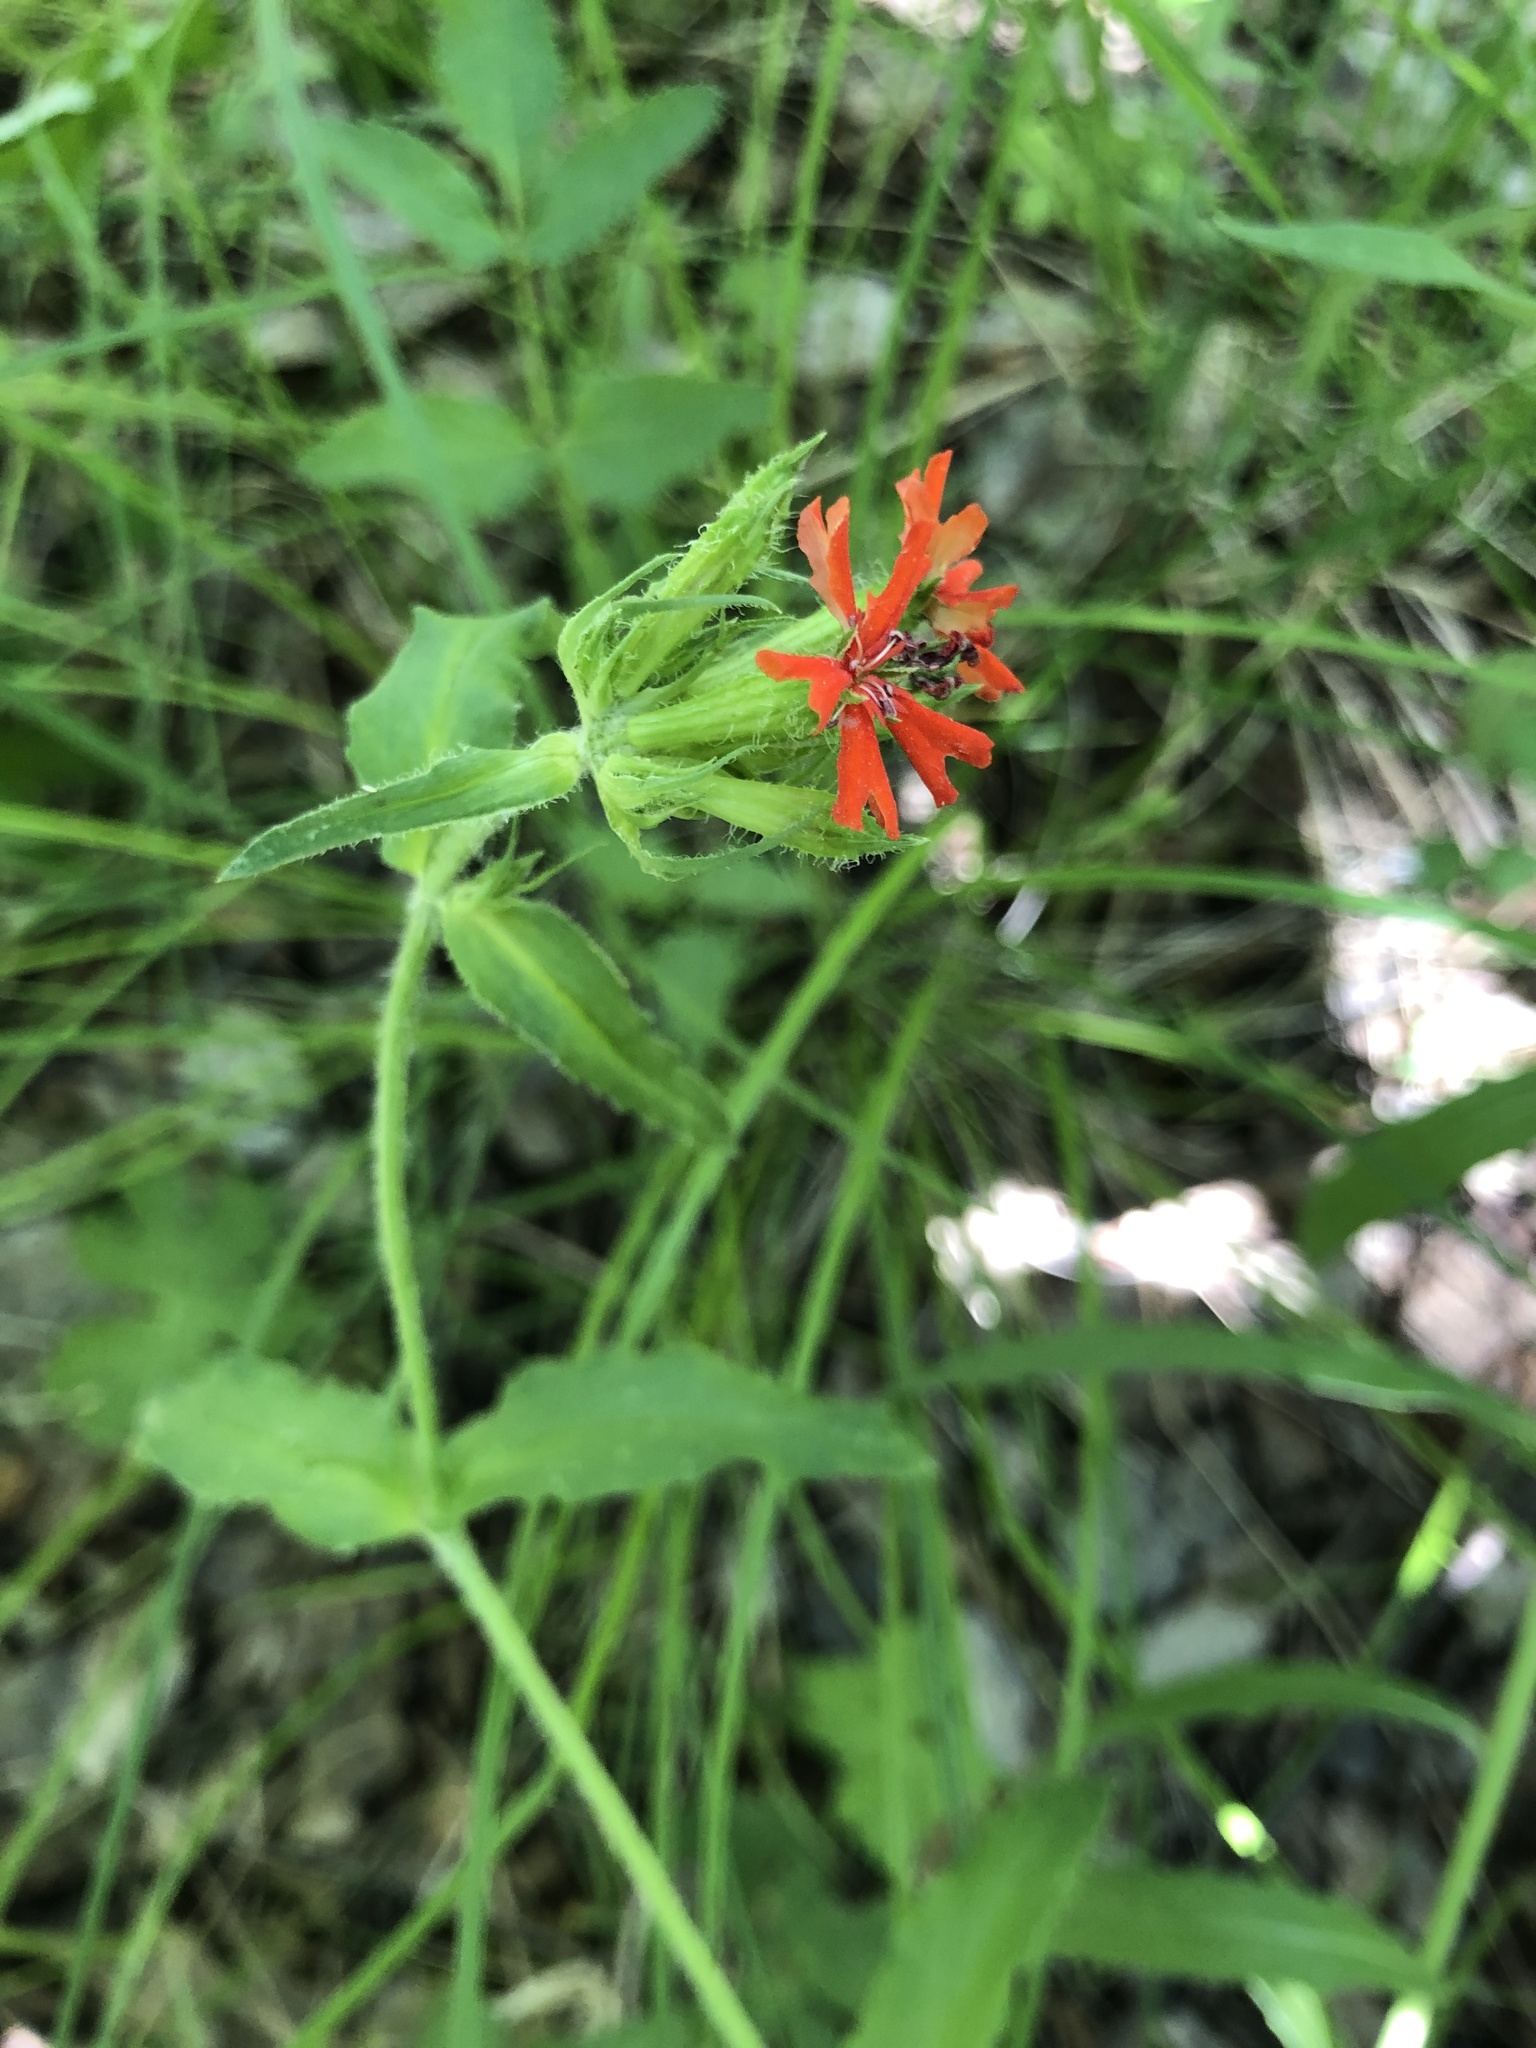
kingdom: Plantae
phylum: Tracheophyta
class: Magnoliopsida
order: Caryophyllales
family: Caryophyllaceae
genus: Silene
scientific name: Silene chalcedonica
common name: Maltese-cross
